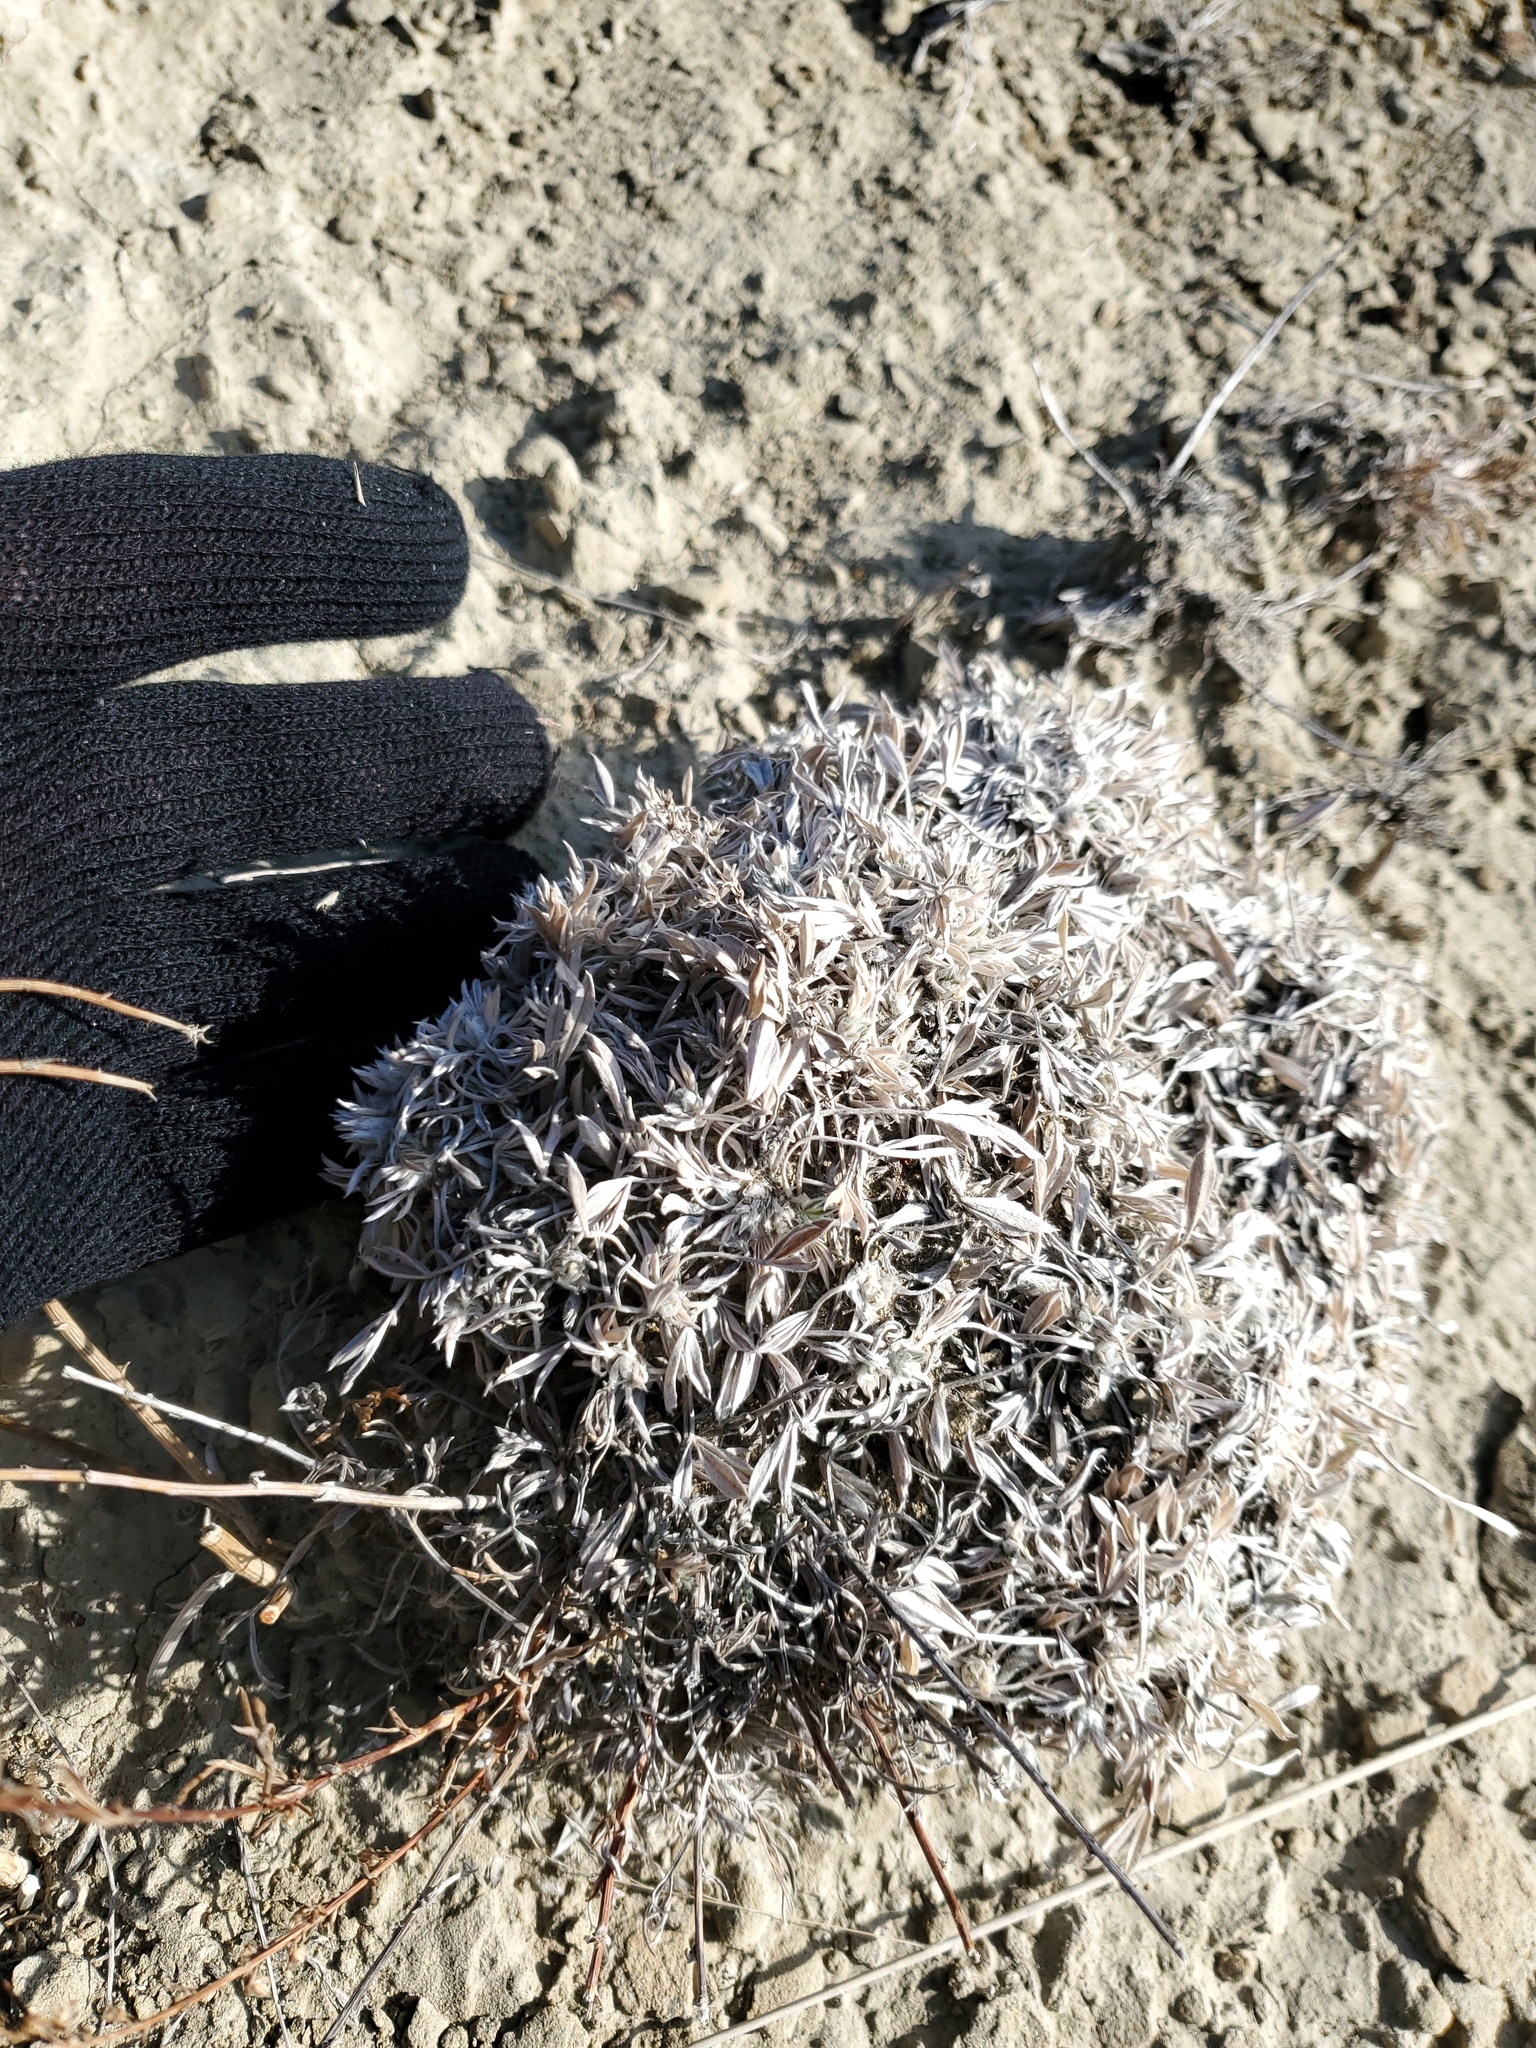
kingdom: Plantae
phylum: Tracheophyta
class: Magnoliopsida
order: Fabales
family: Fabaceae
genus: Astragalus
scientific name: Astragalus gilviflorus
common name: Cushion milk-vetch
